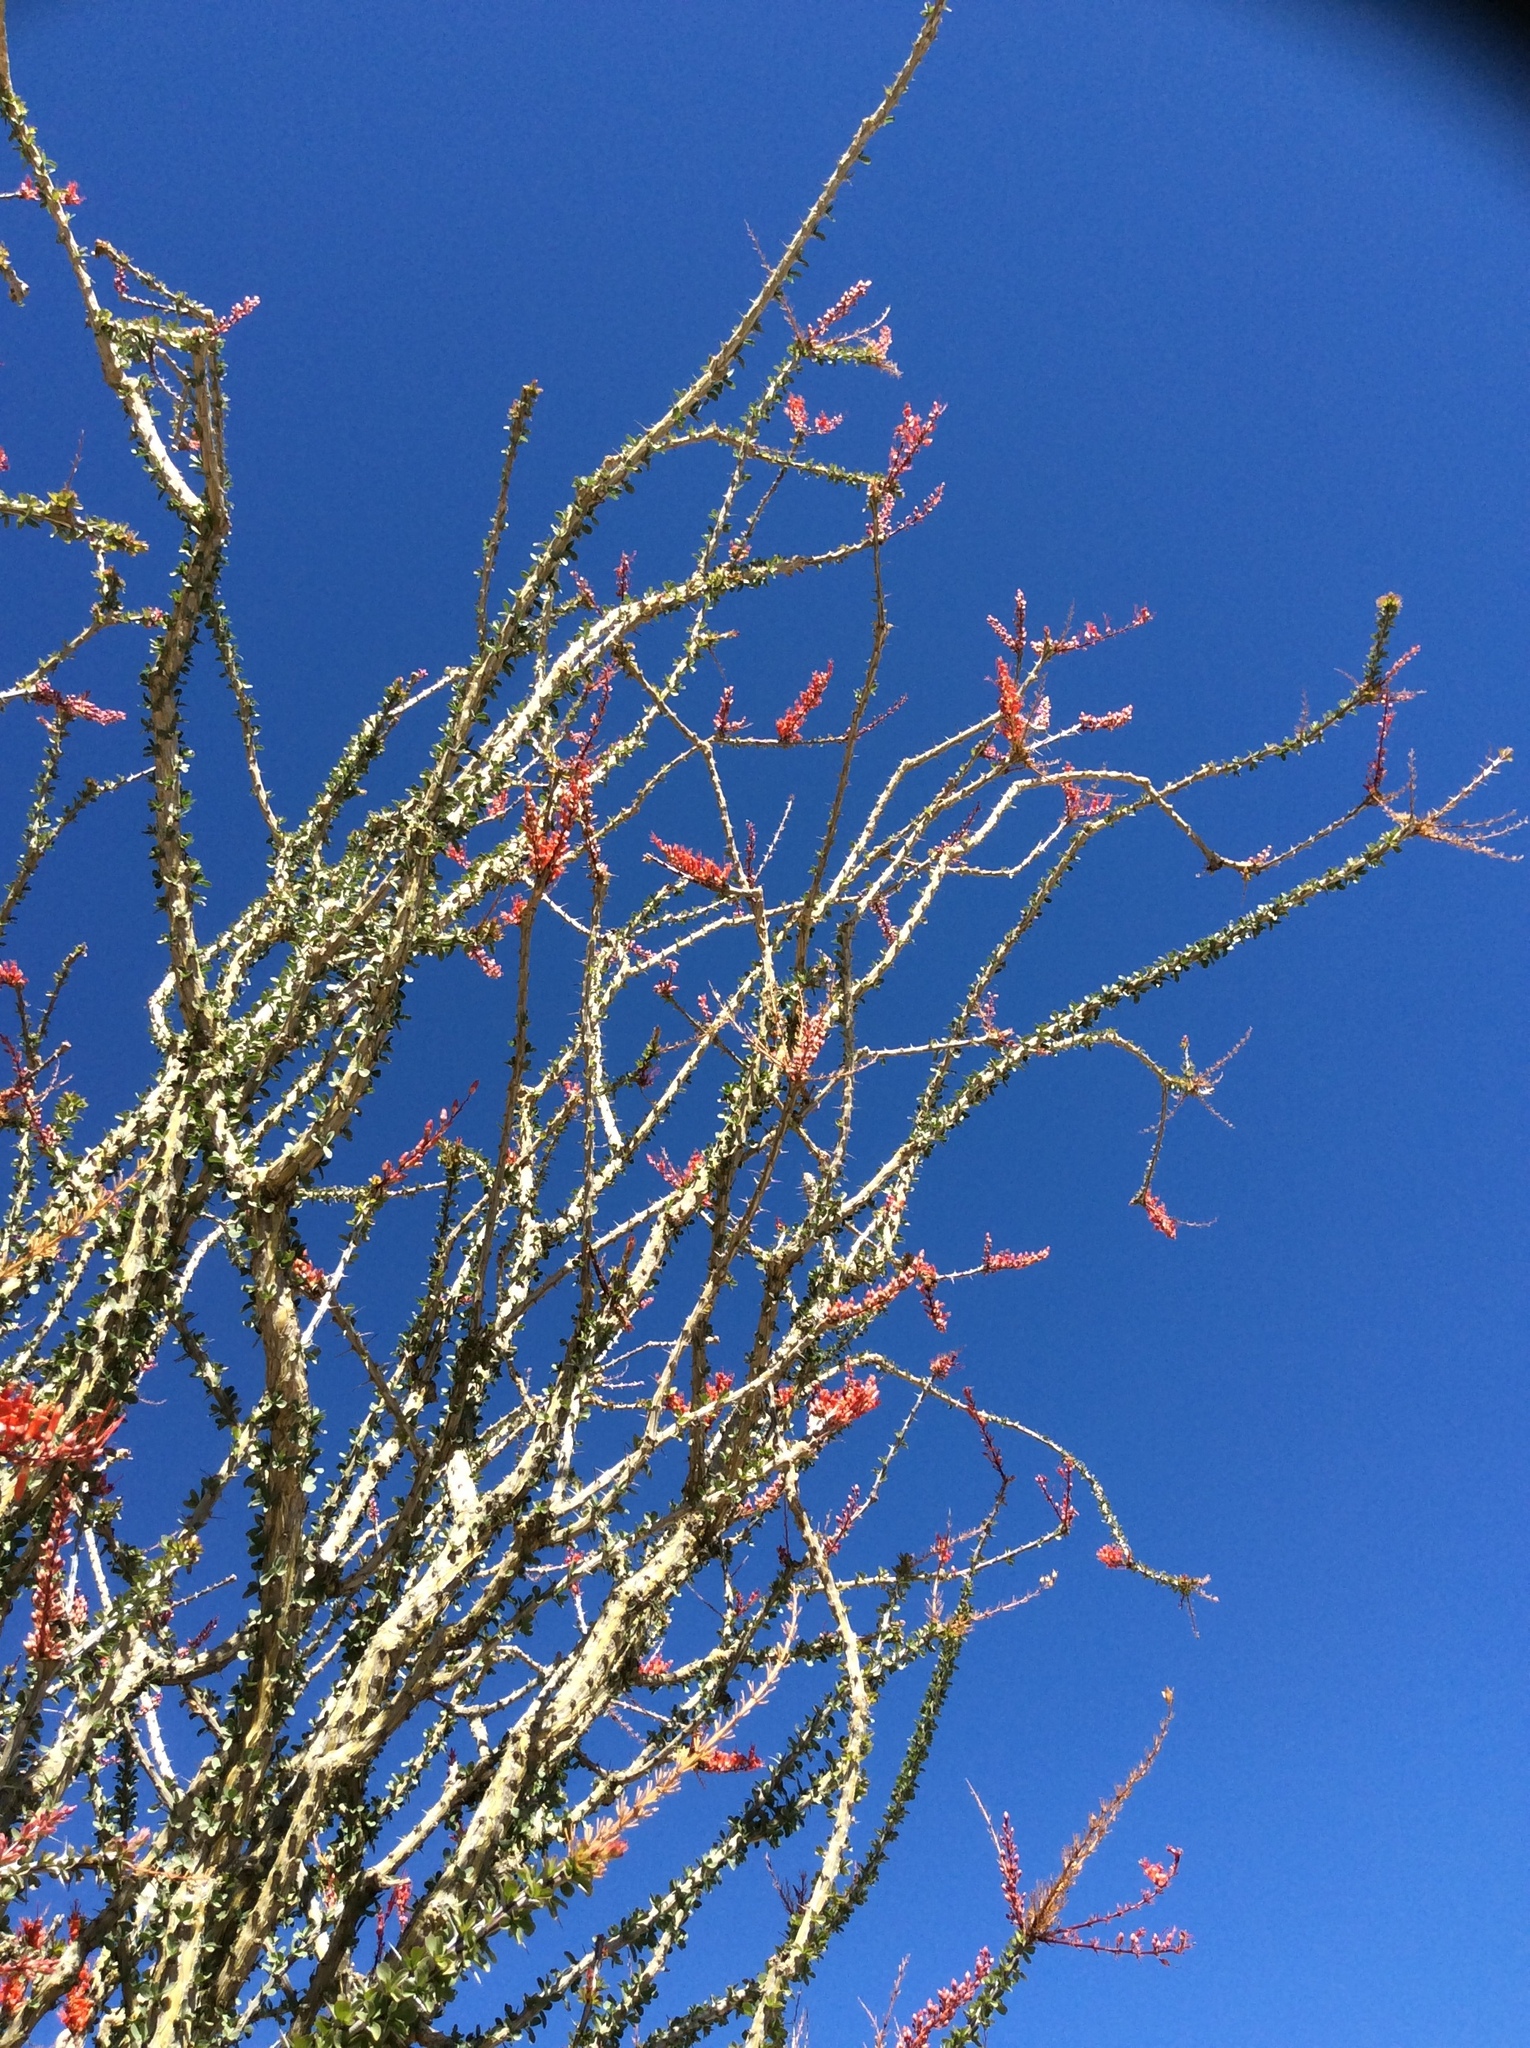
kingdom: Plantae
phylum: Tracheophyta
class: Magnoliopsida
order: Ericales
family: Fouquieriaceae
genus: Fouquieria
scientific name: Fouquieria splendens
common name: Vine-cactus
